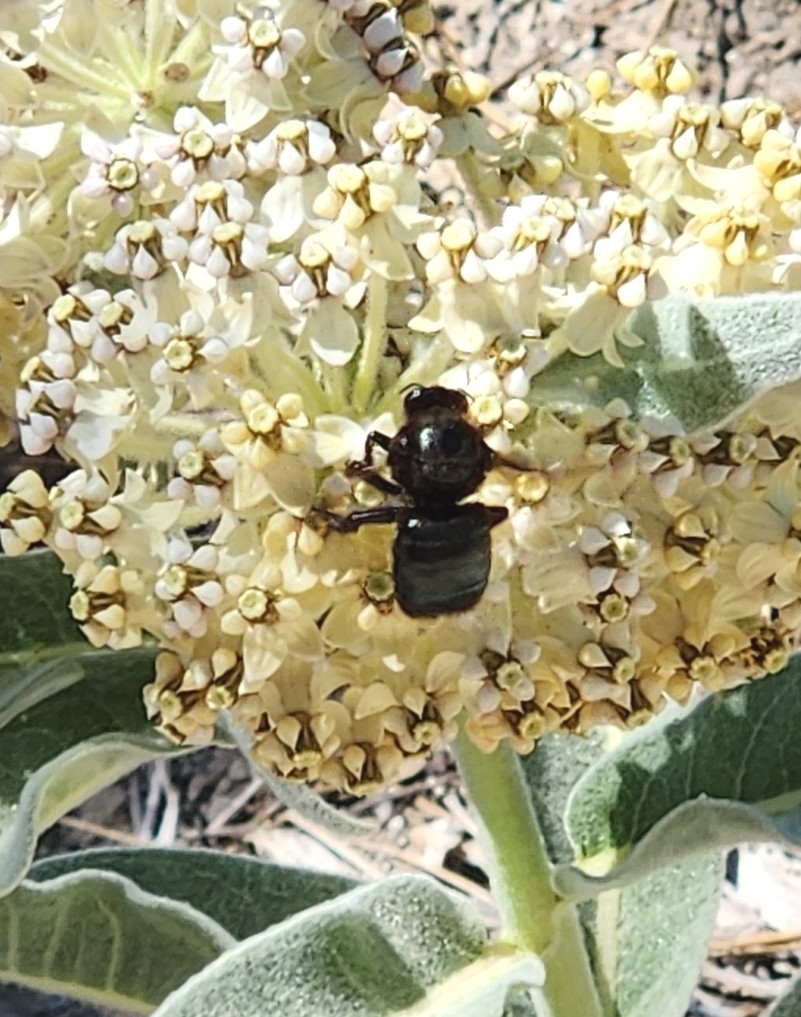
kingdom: Animalia
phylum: Arthropoda
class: Insecta
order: Hymenoptera
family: Apidae
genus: Xylocopa
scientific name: Xylocopa californica
